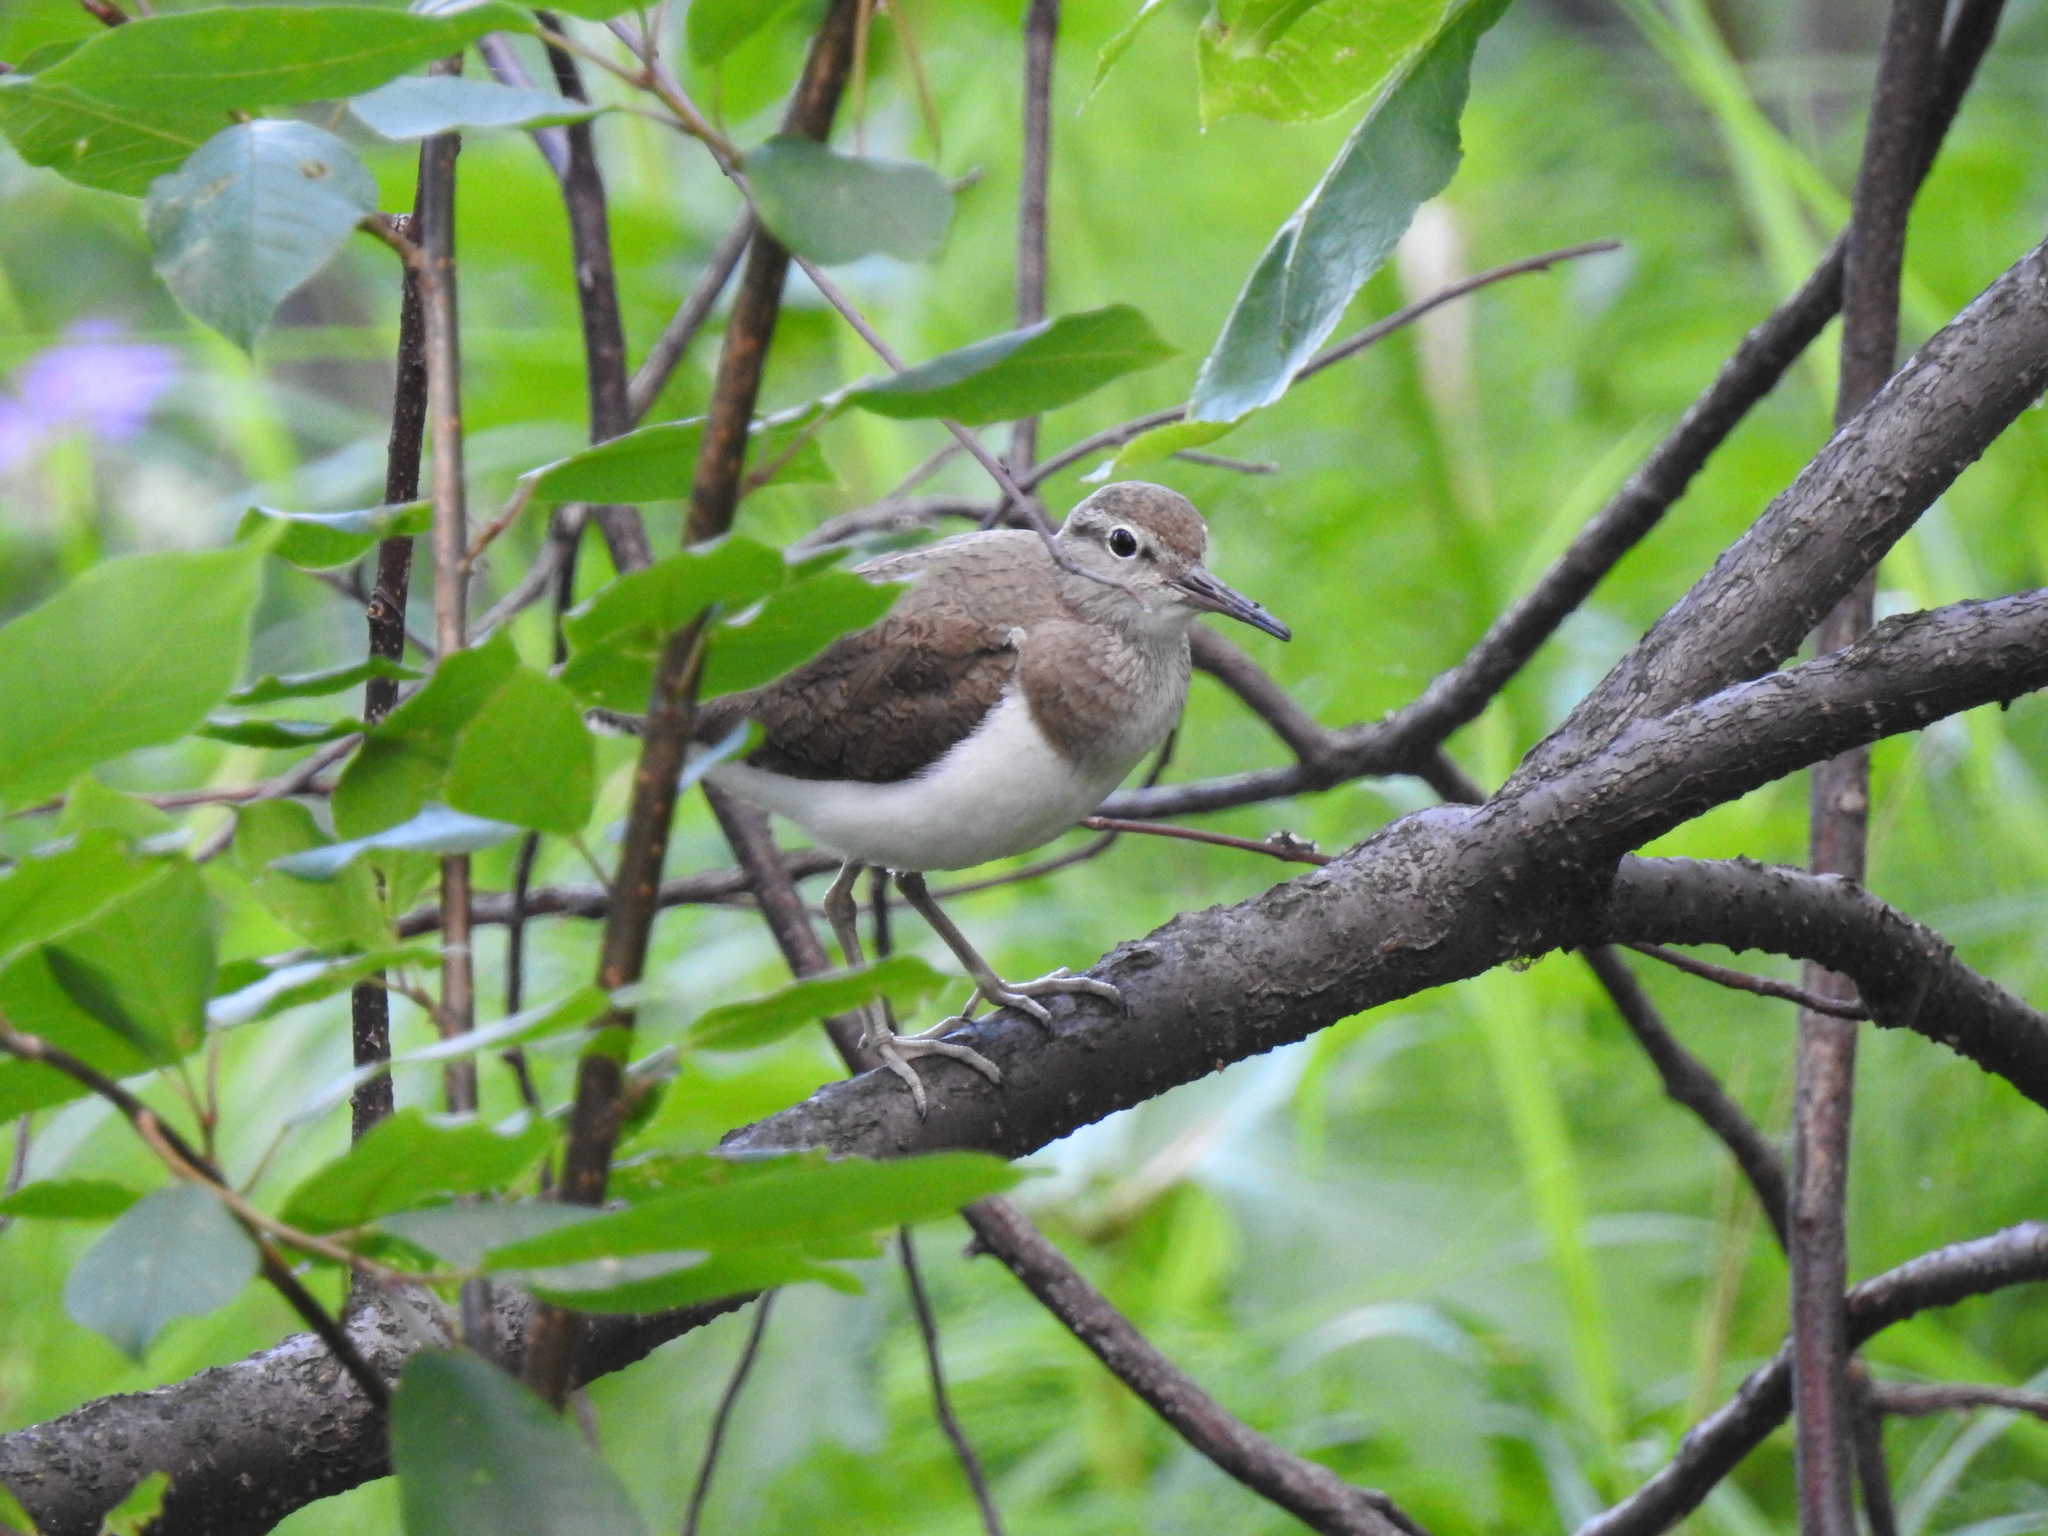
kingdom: Animalia
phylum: Chordata
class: Aves
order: Charadriiformes
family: Scolopacidae
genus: Actitis
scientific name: Actitis hypoleucos
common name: Common sandpiper
